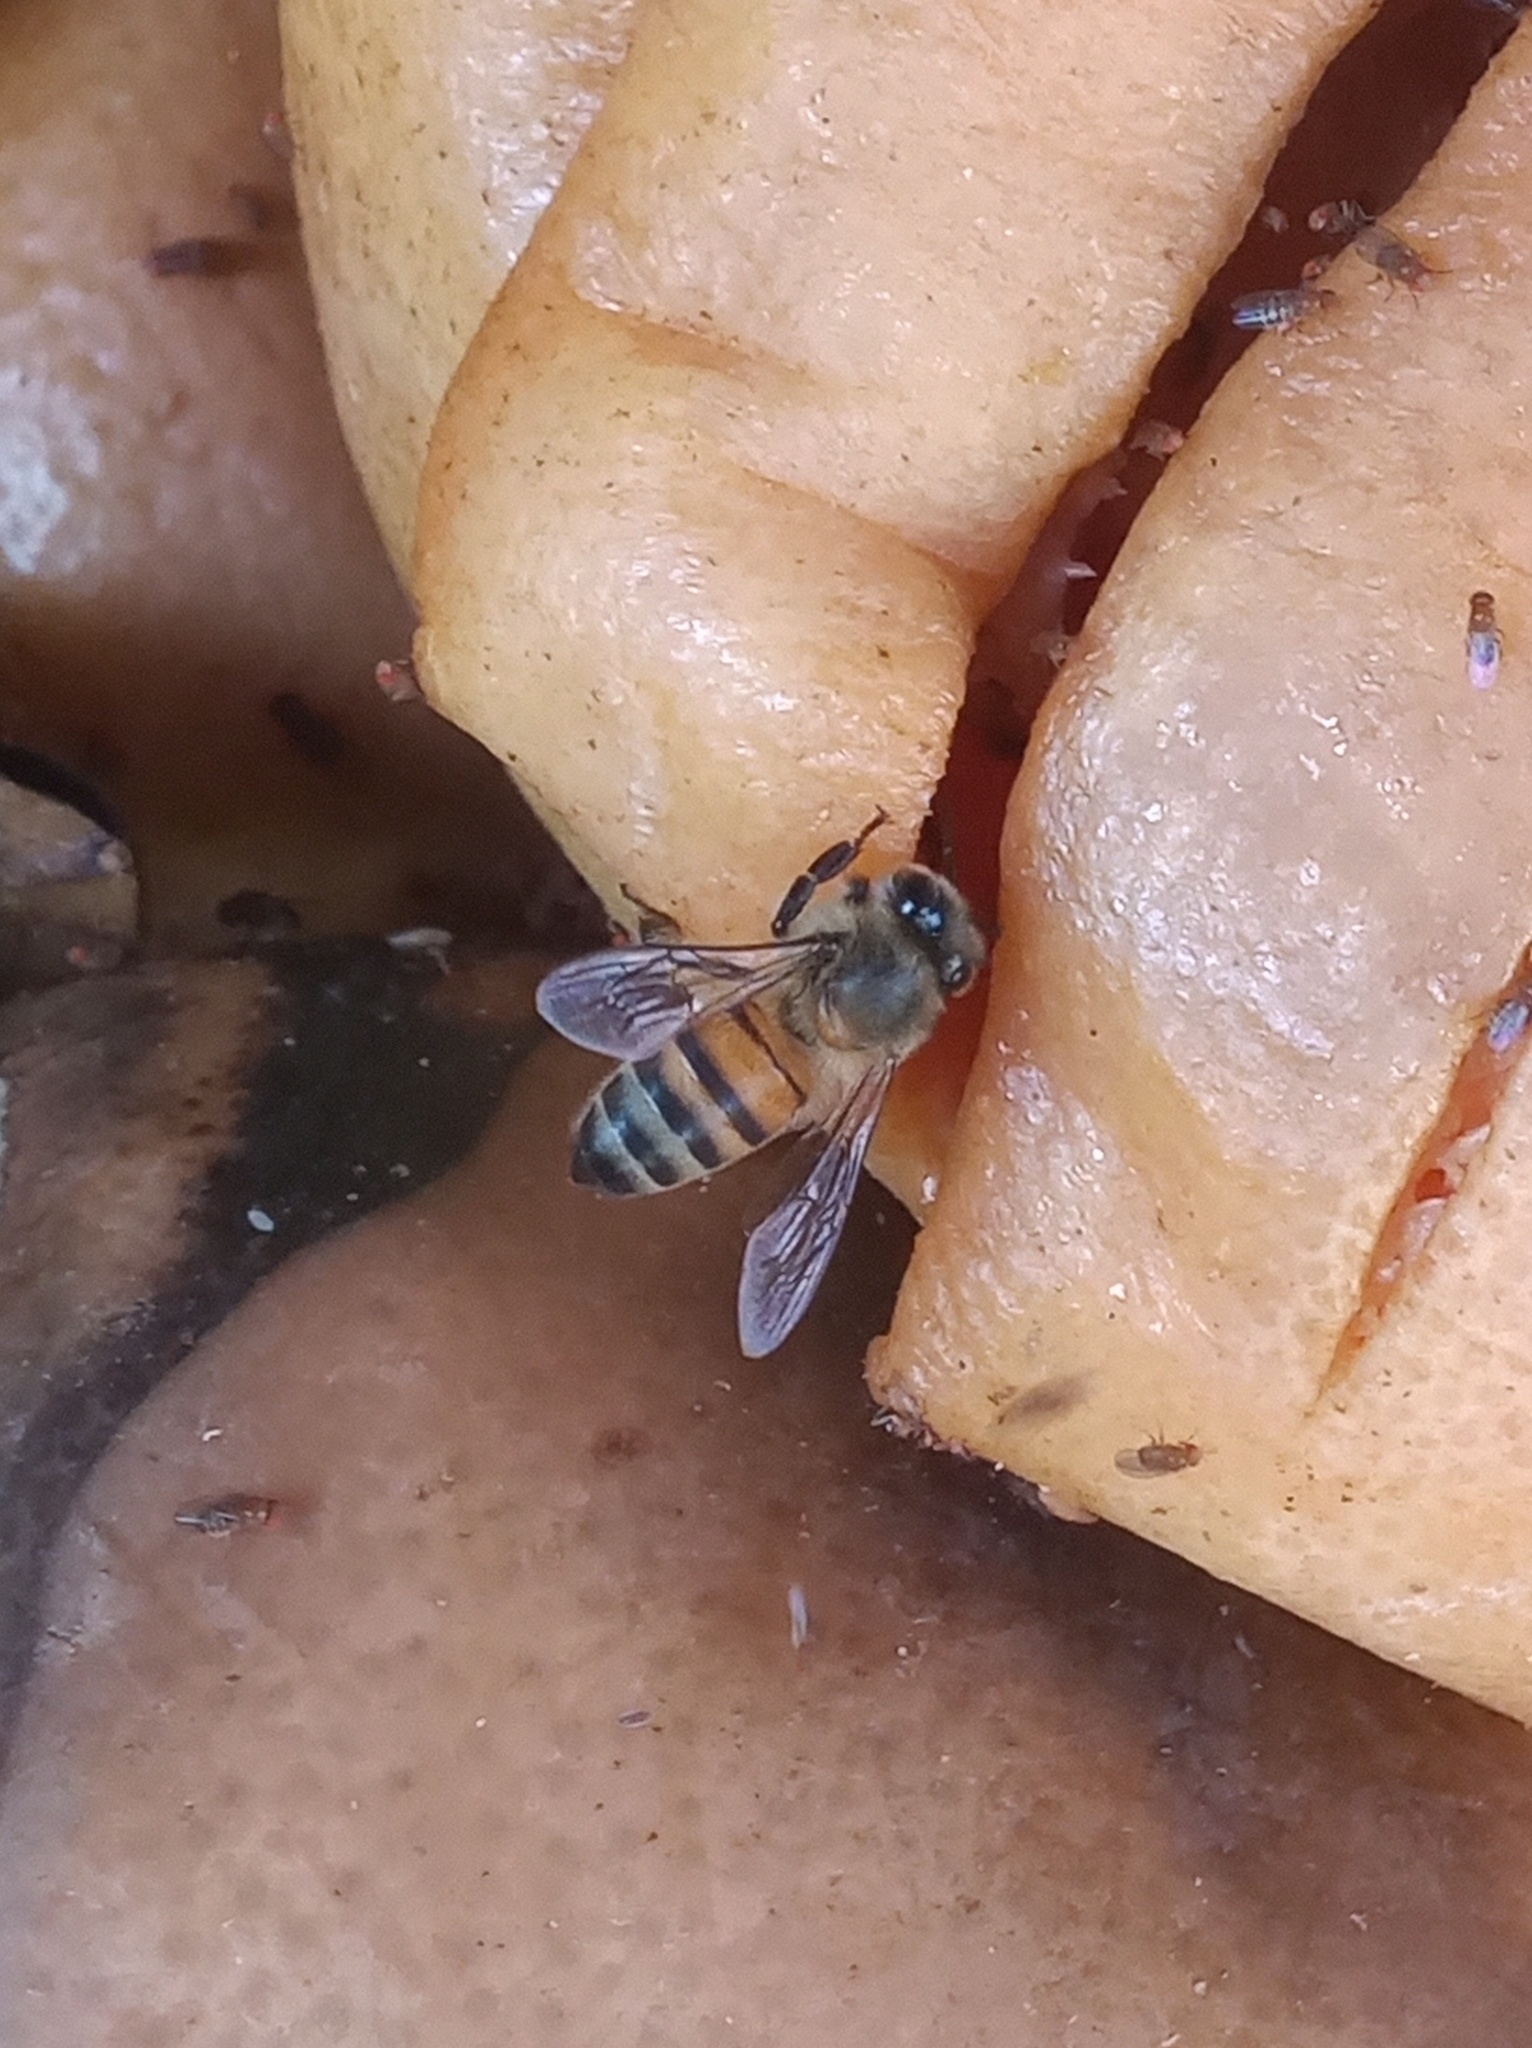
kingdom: Animalia
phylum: Arthropoda
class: Insecta
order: Hymenoptera
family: Apidae
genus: Apis
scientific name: Apis mellifera
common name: Honey bee
